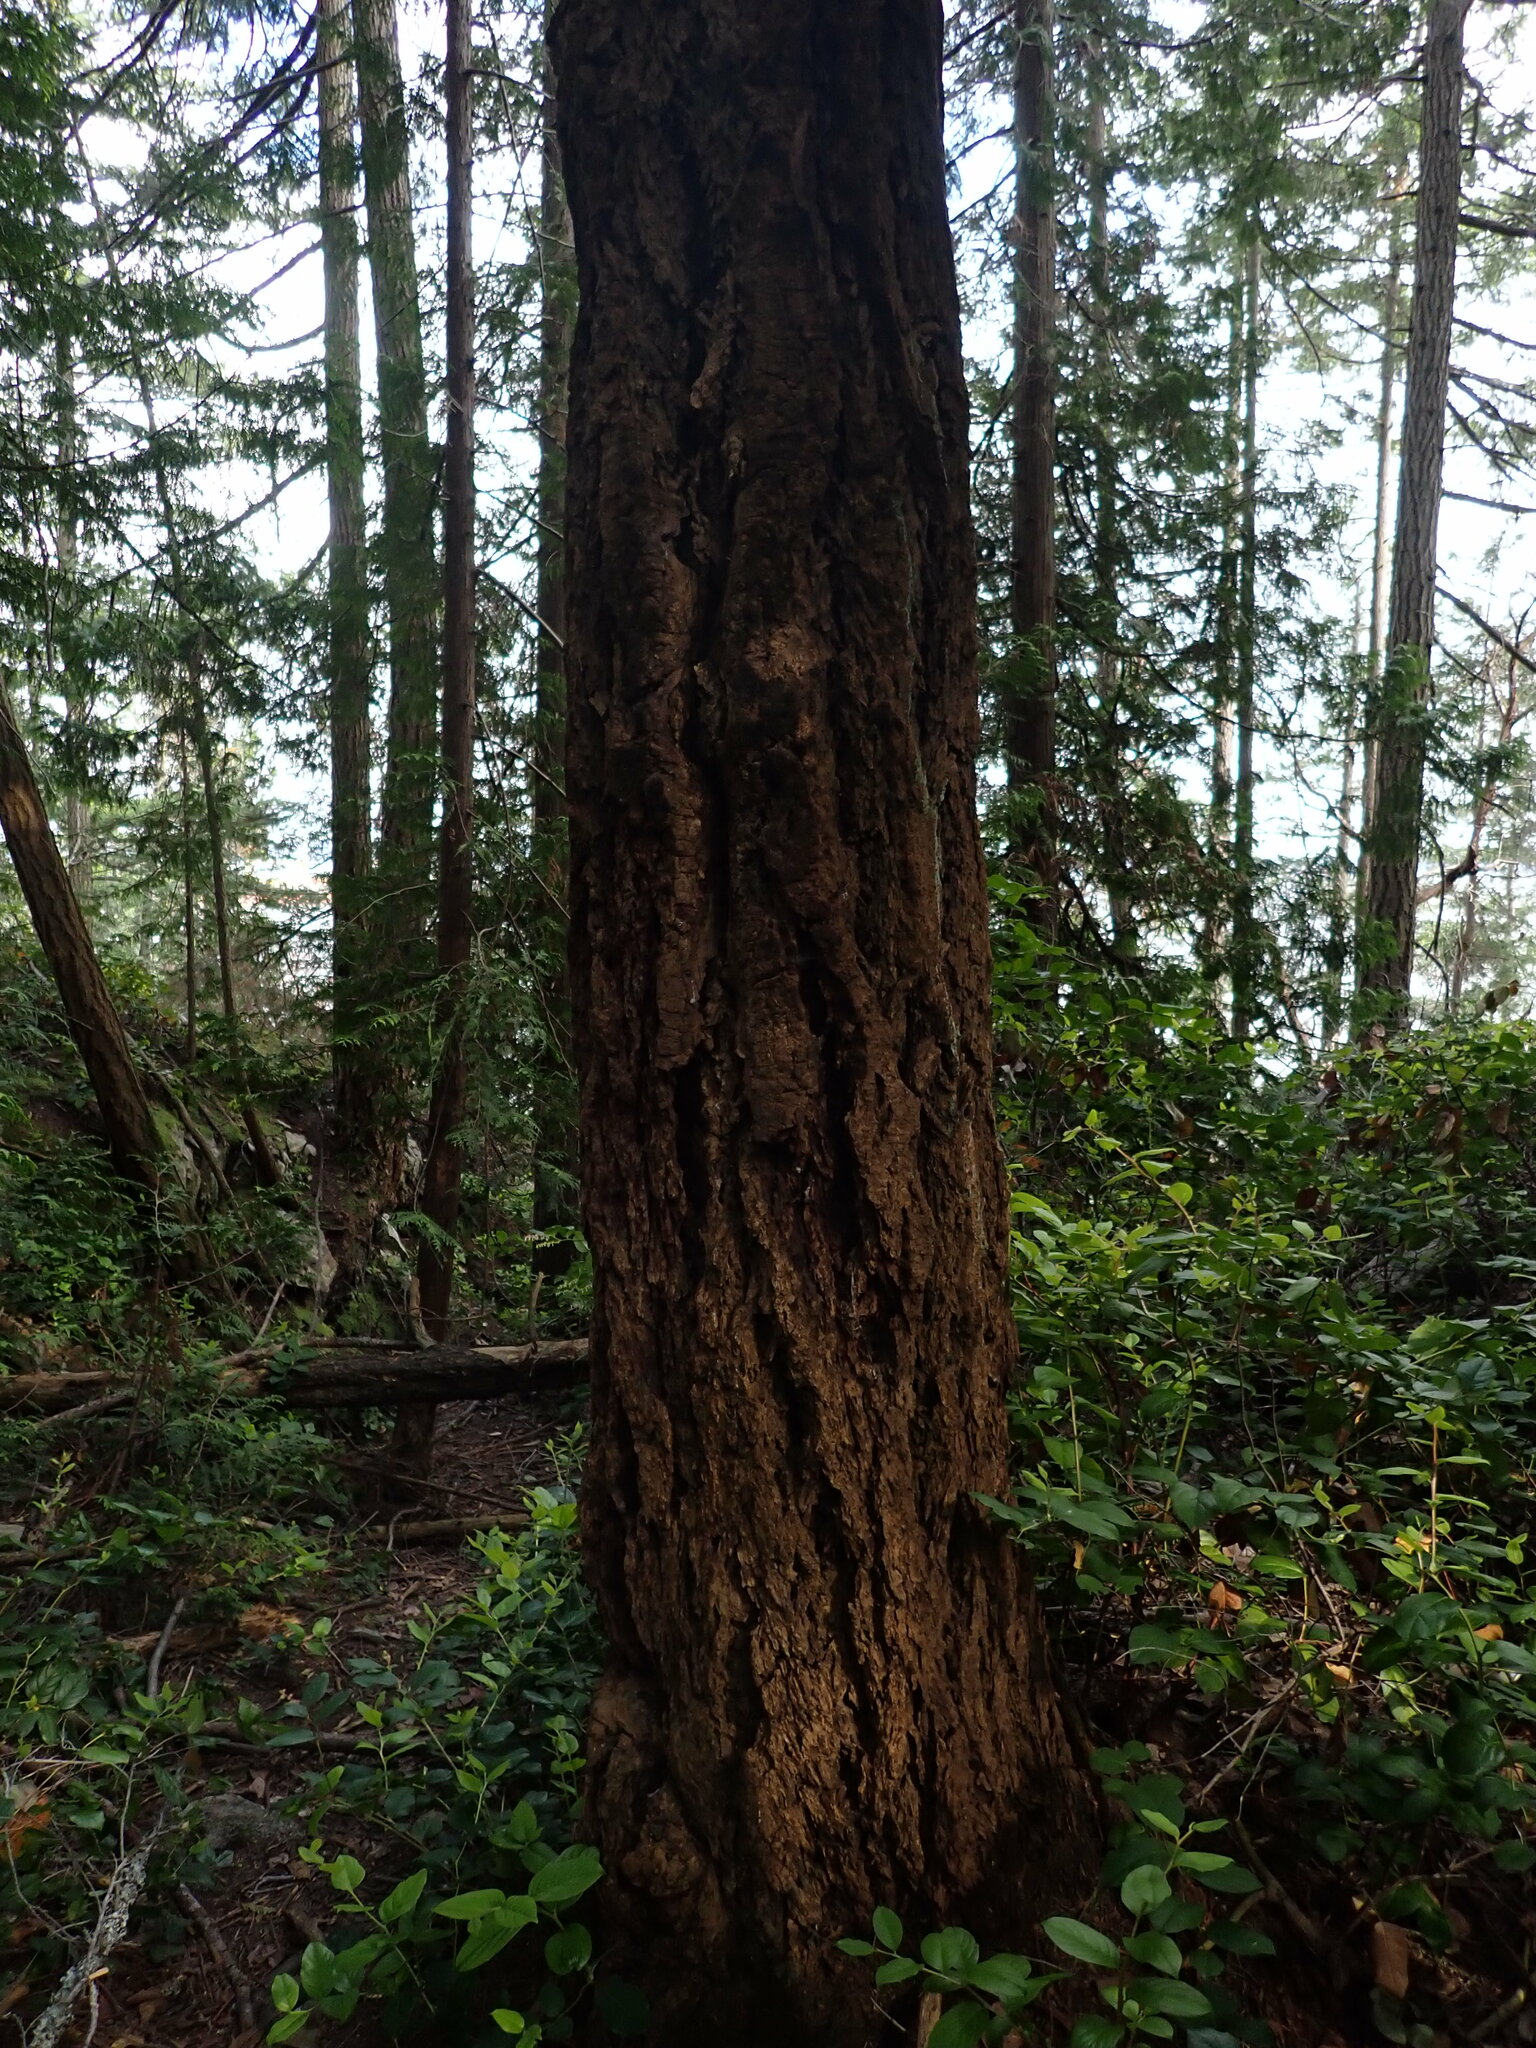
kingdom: Plantae
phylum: Tracheophyta
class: Pinopsida
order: Pinales
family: Pinaceae
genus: Pseudotsuga
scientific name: Pseudotsuga menziesii
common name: Douglas fir
